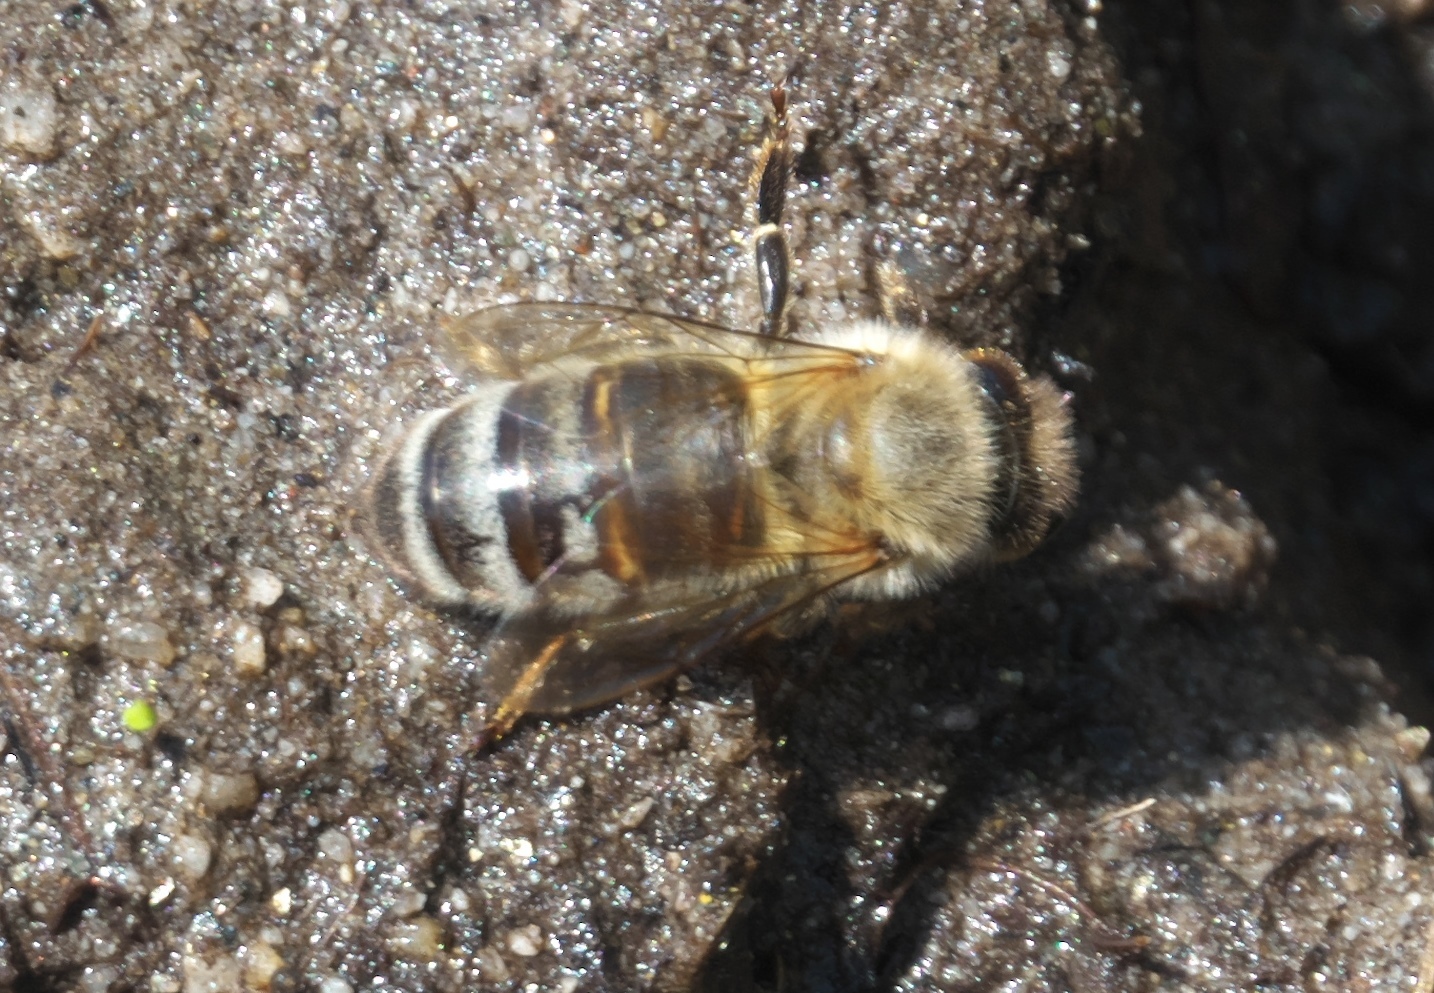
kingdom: Animalia
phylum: Arthropoda
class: Insecta
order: Hymenoptera
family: Apidae
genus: Apis
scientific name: Apis mellifera
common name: Honey bee
